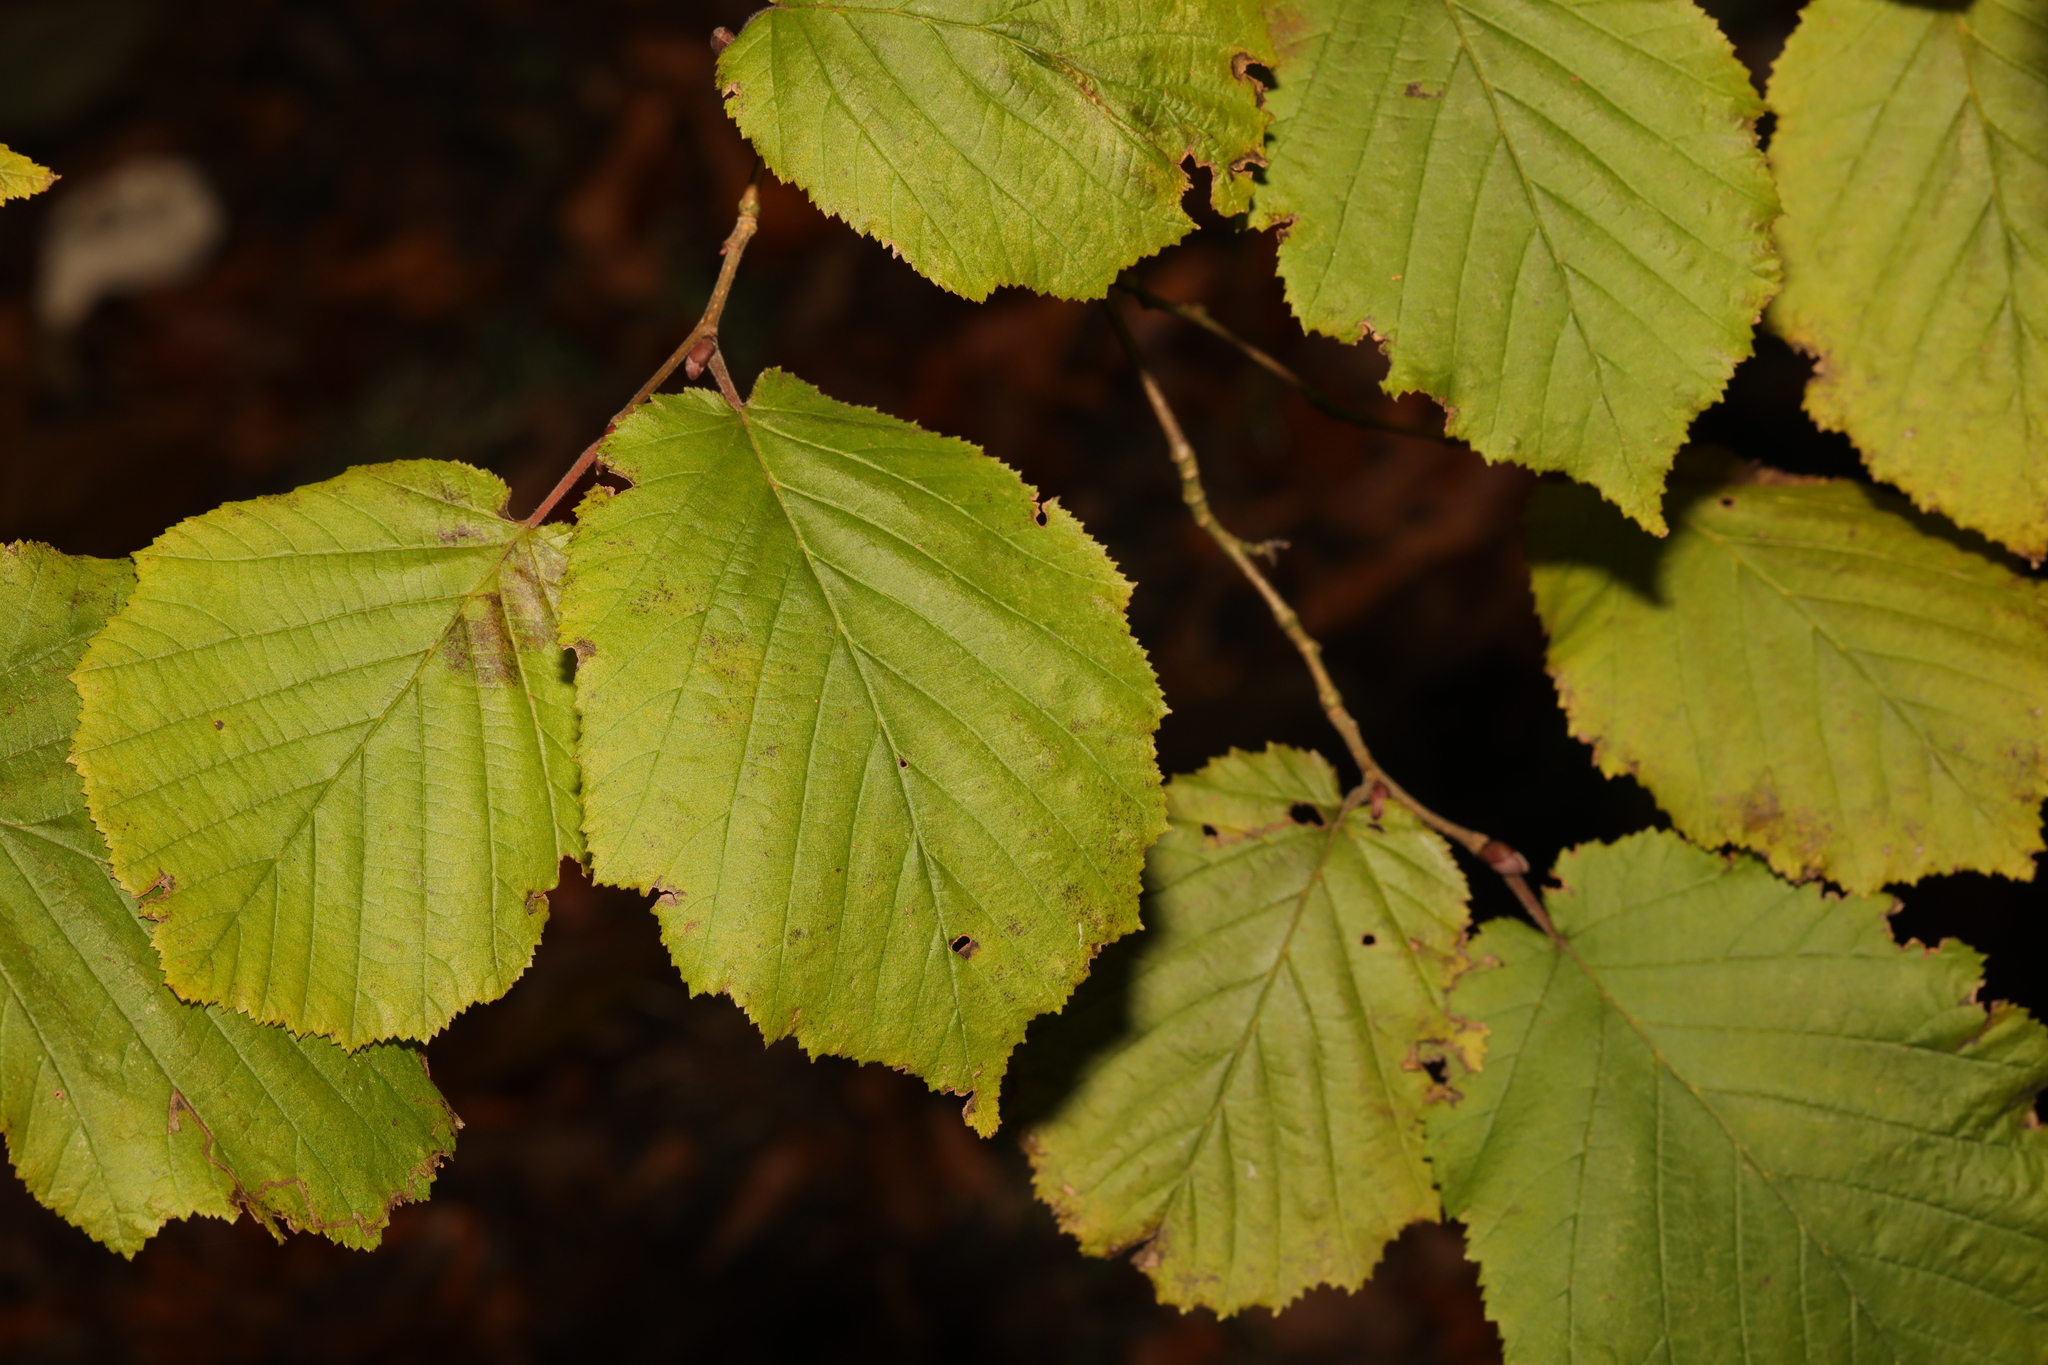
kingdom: Plantae
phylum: Tracheophyta
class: Magnoliopsida
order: Fagales
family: Betulaceae
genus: Corylus
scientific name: Corylus avellana
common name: European hazel
